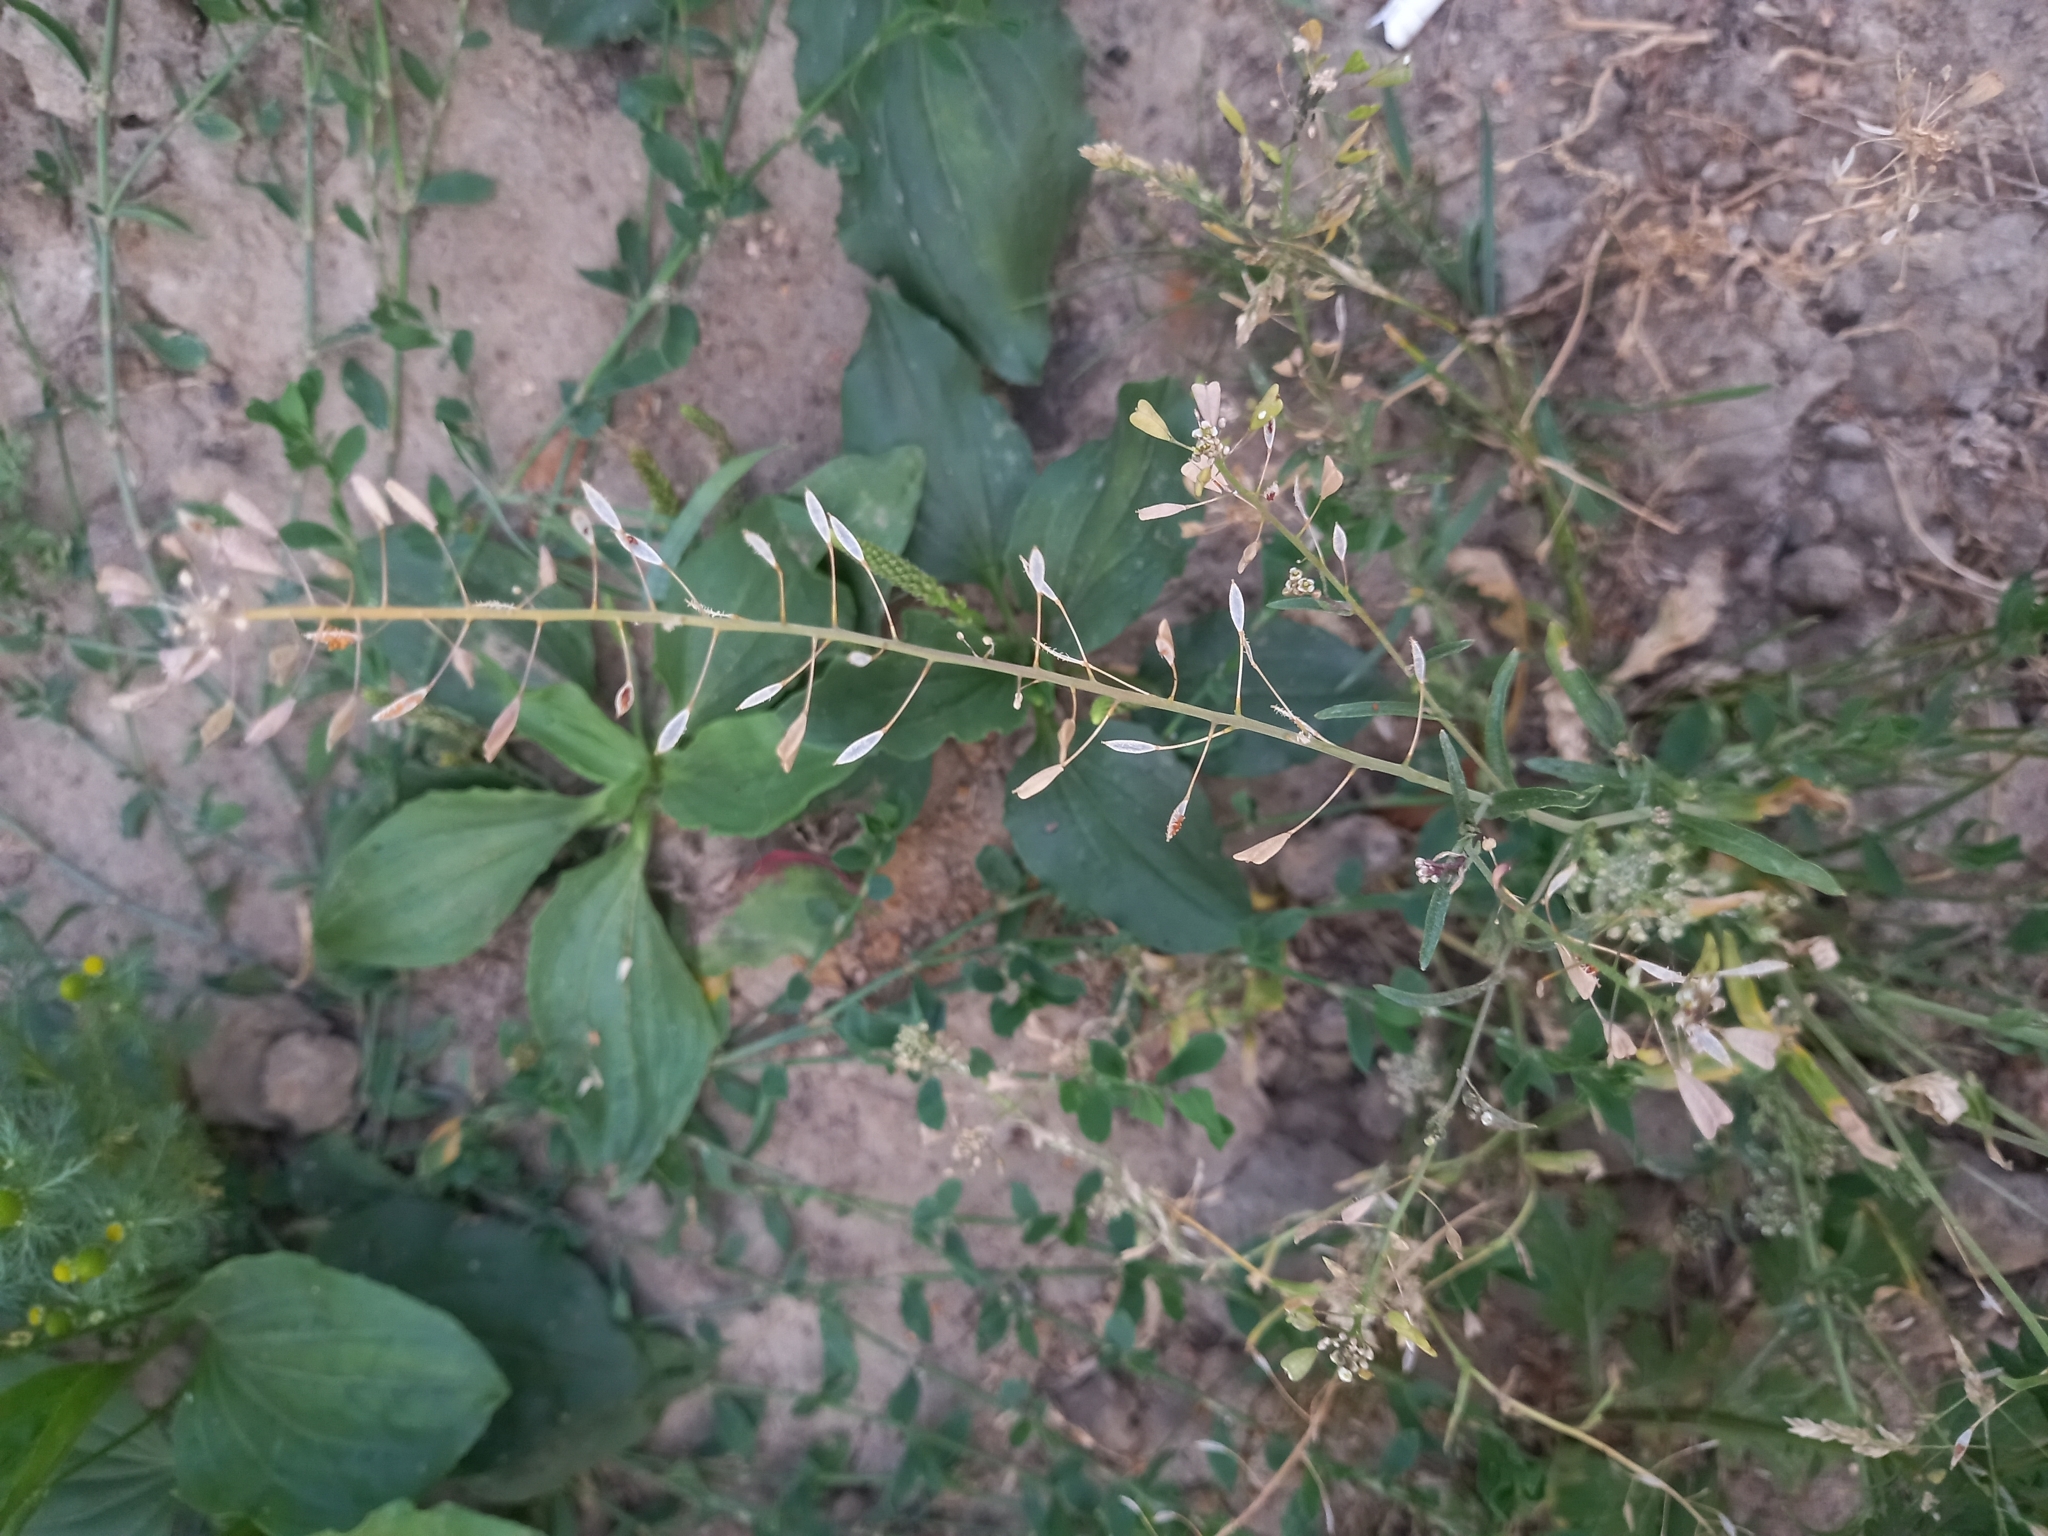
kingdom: Plantae
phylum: Tracheophyta
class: Magnoliopsida
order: Brassicales
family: Brassicaceae
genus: Capsella
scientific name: Capsella bursa-pastoris
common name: Shepherd's purse
